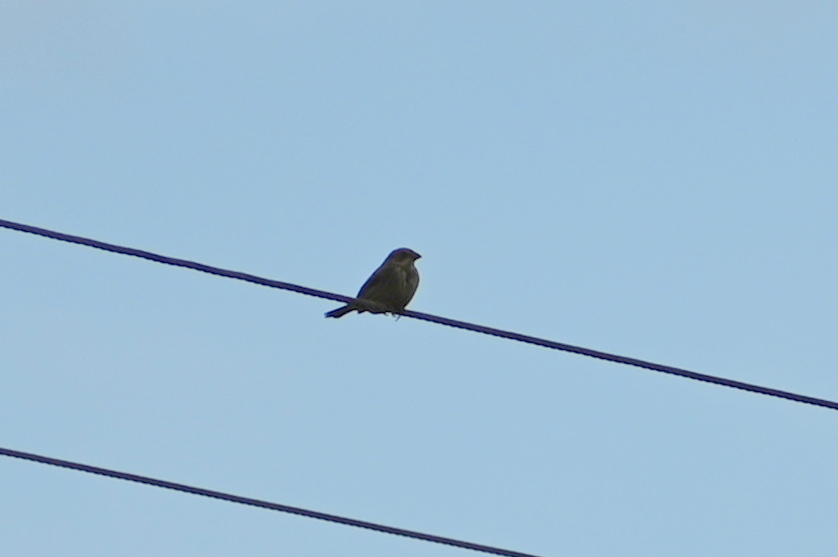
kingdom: Animalia
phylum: Chordata
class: Aves
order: Passeriformes
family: Emberizidae
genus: Emberiza
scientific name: Emberiza calandra
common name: Corn bunting
